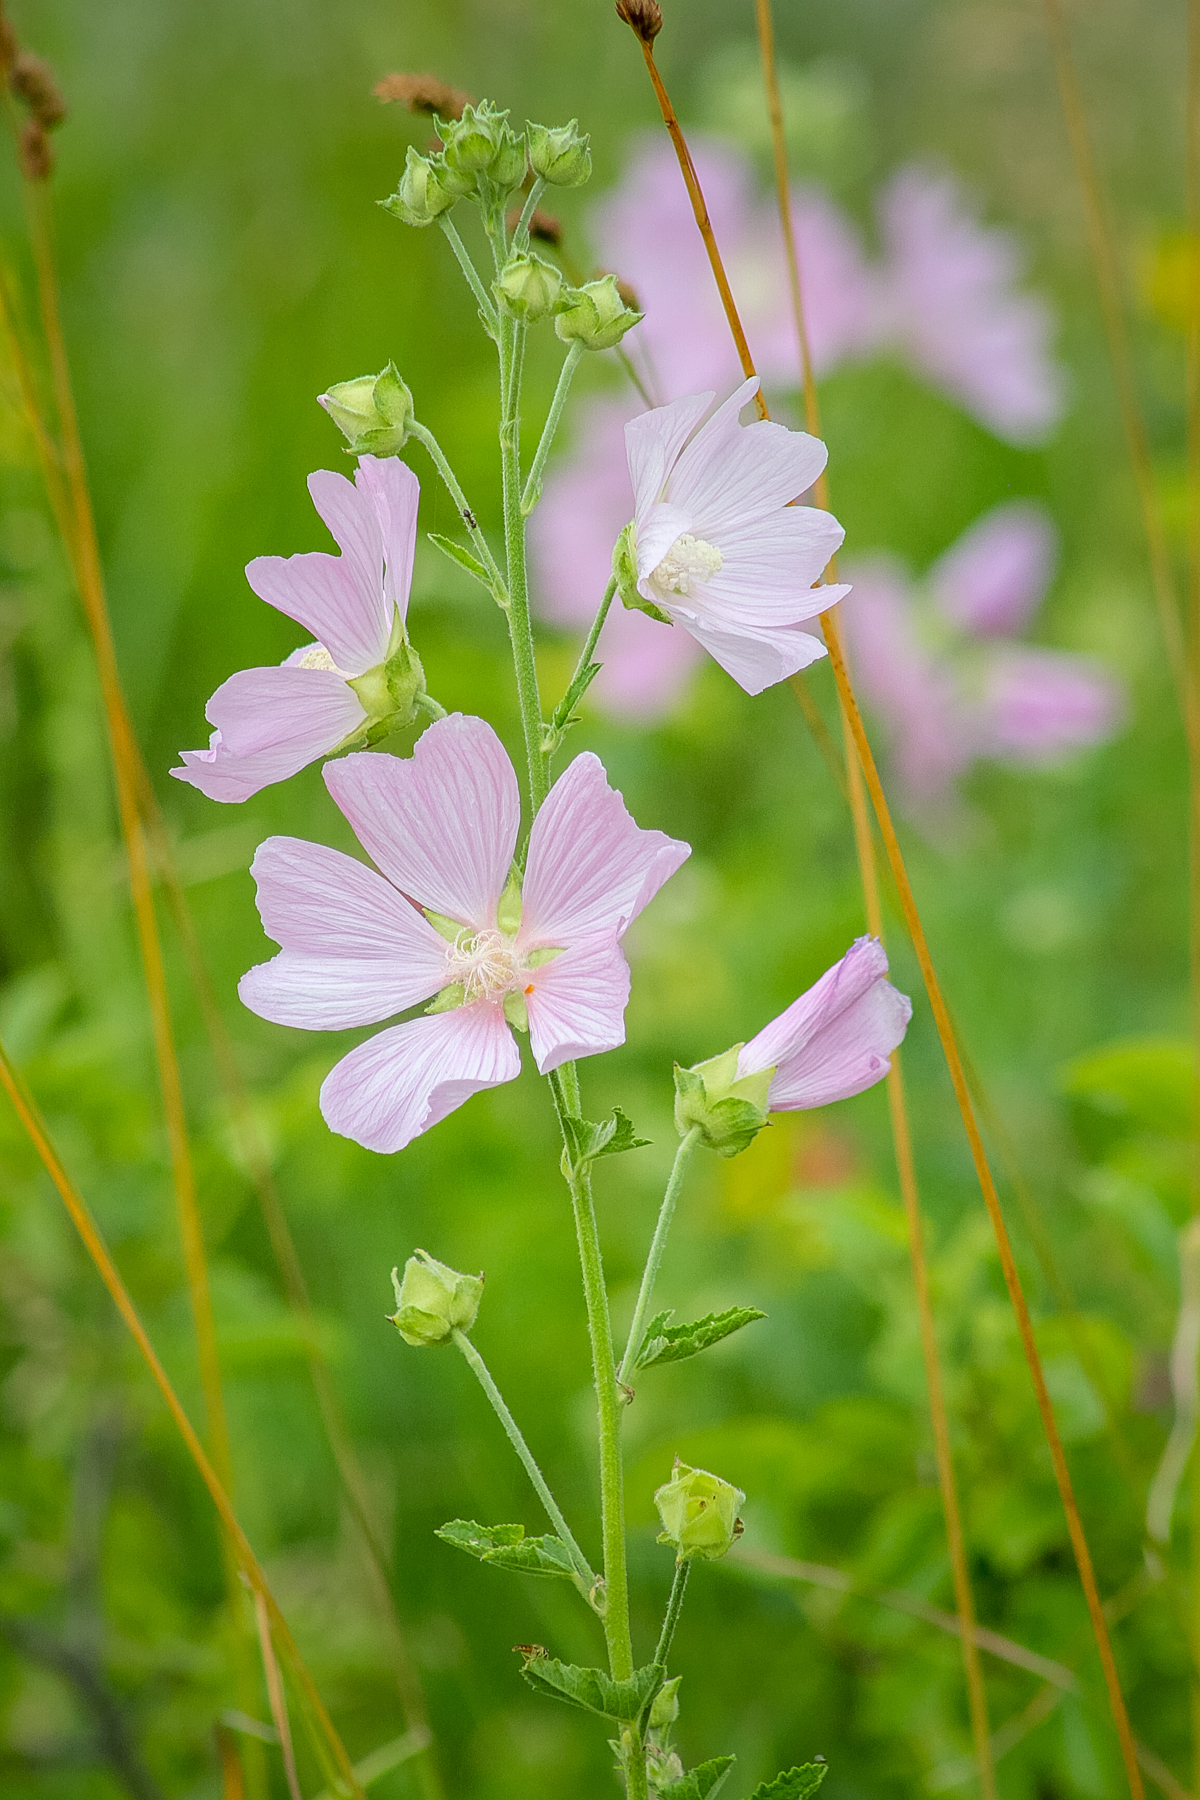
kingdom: Plantae
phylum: Tracheophyta
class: Magnoliopsida
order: Malvales
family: Malvaceae
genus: Malva
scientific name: Malva thuringiaca
